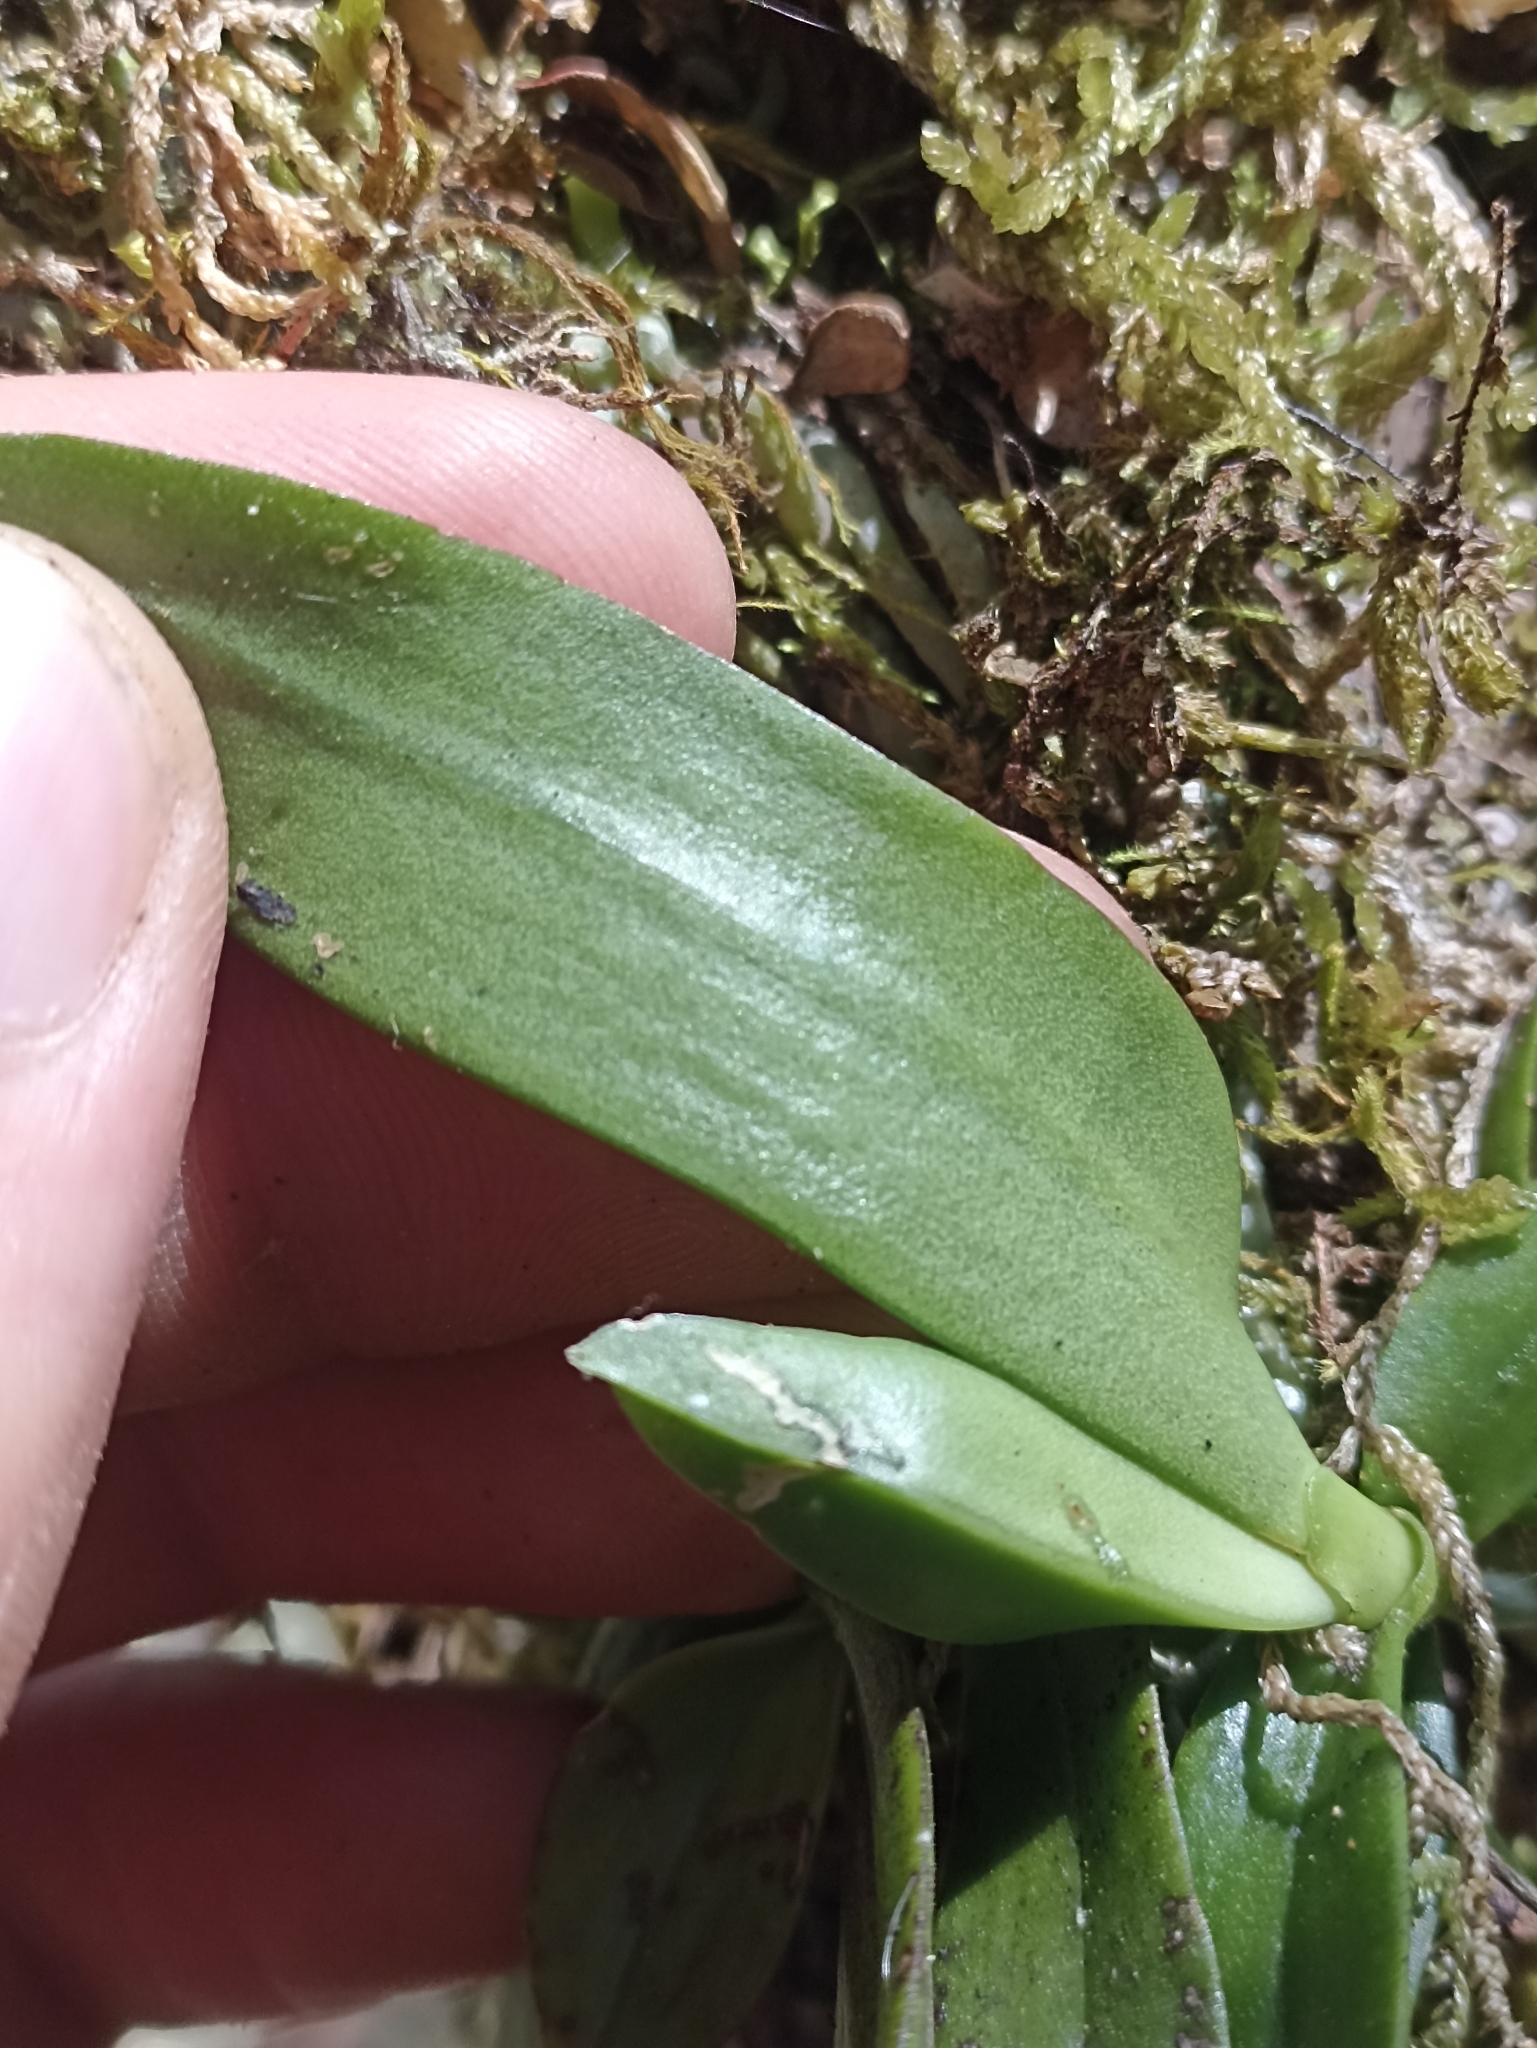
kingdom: Plantae
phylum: Tracheophyta
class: Liliopsida
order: Asparagales
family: Orchidaceae
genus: Drymoanthus
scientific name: Drymoanthus adversus
